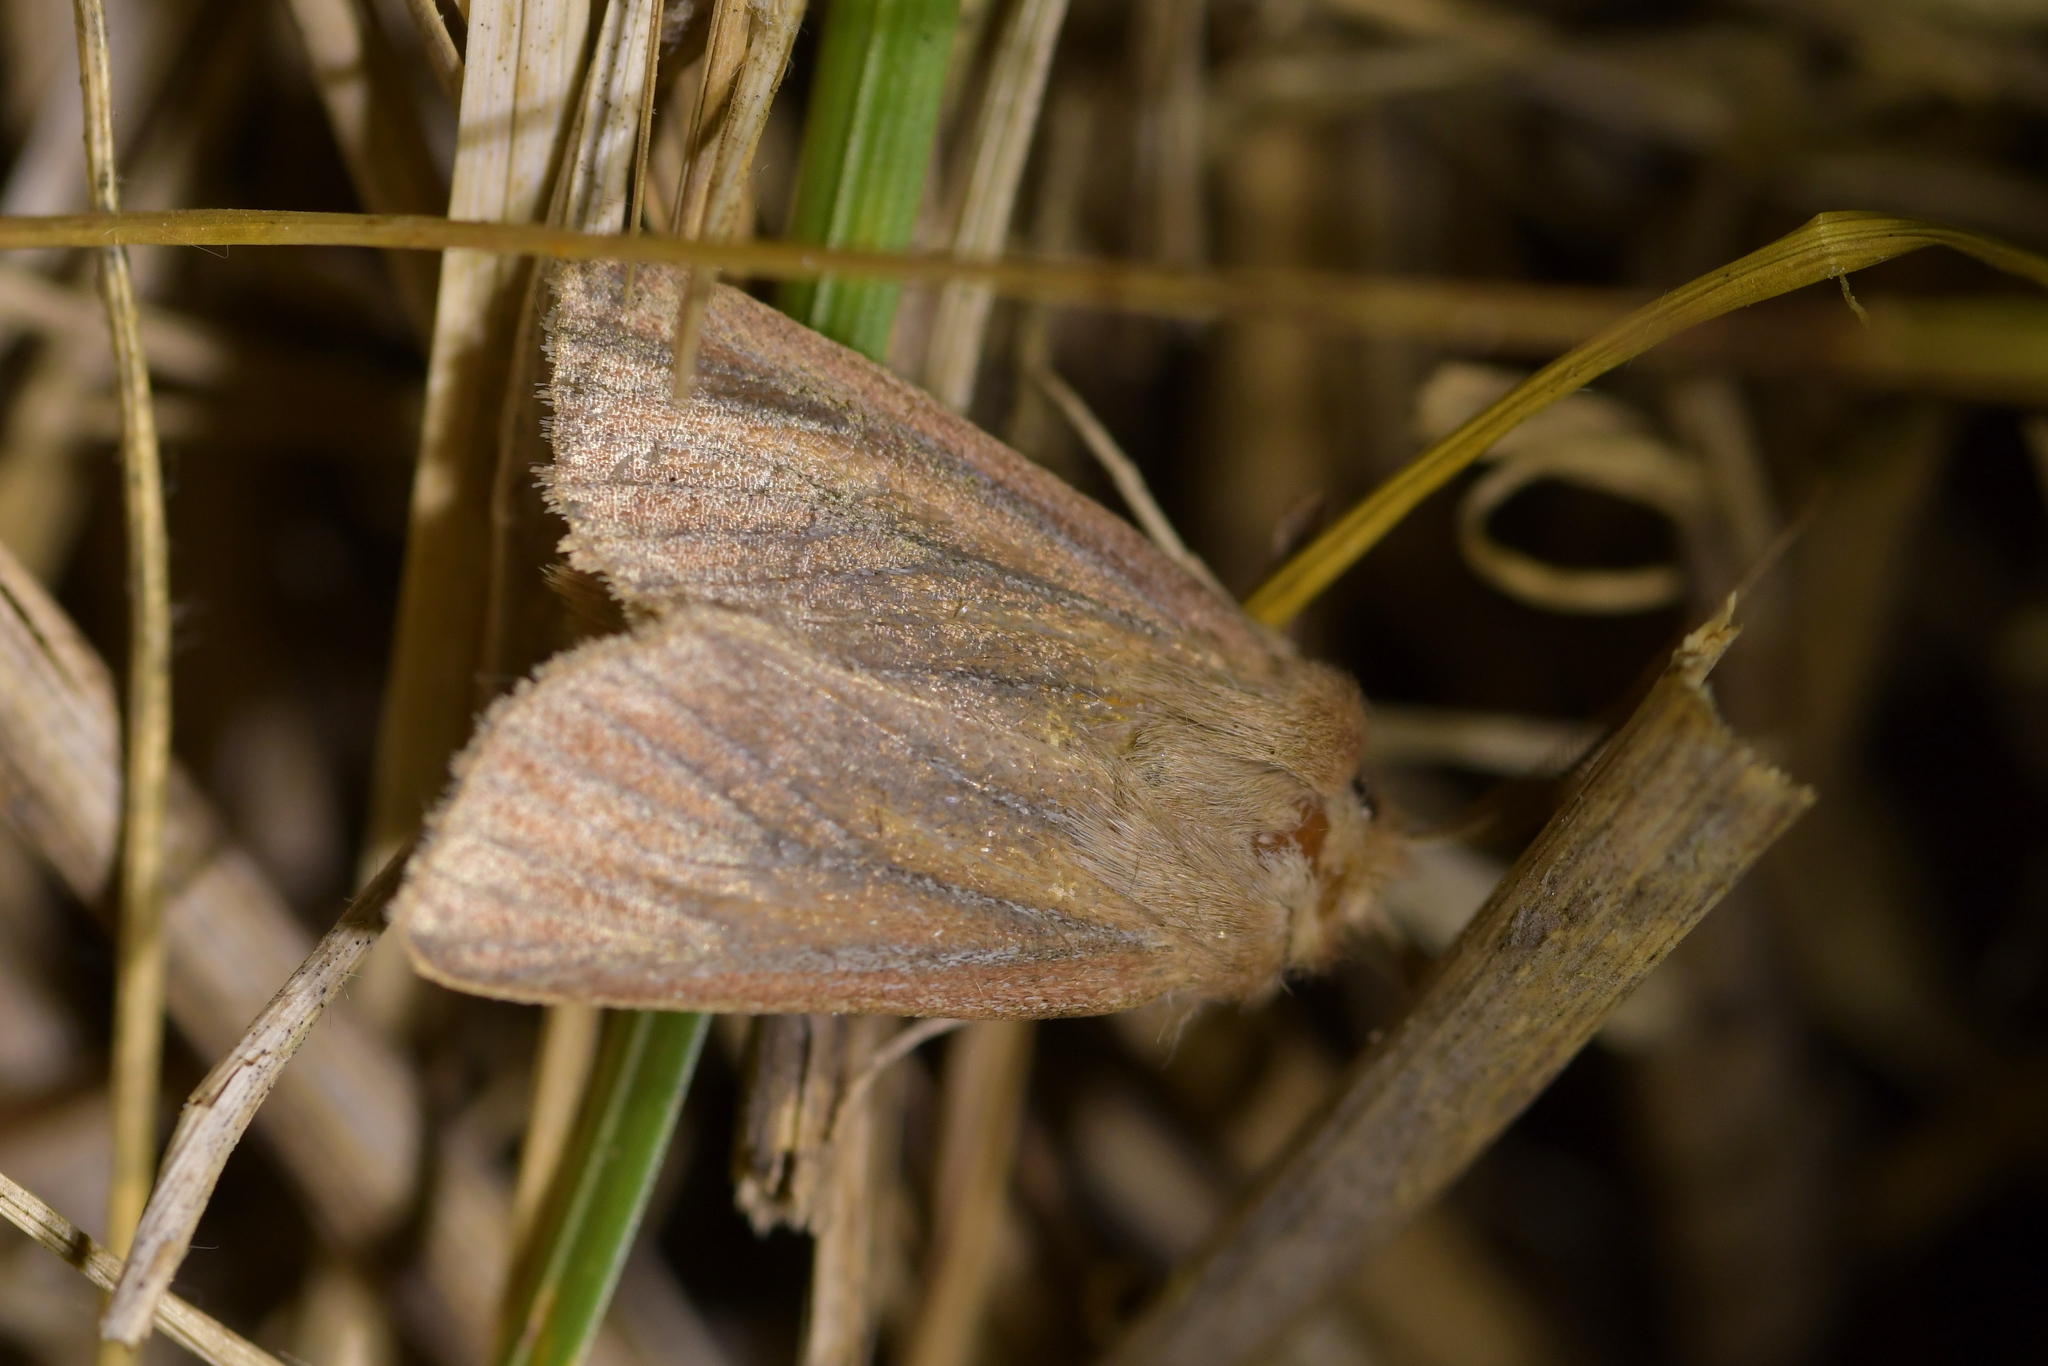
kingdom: Animalia
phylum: Arthropoda
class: Insecta
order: Lepidoptera
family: Noctuidae
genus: Ichneutica
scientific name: Ichneutica
